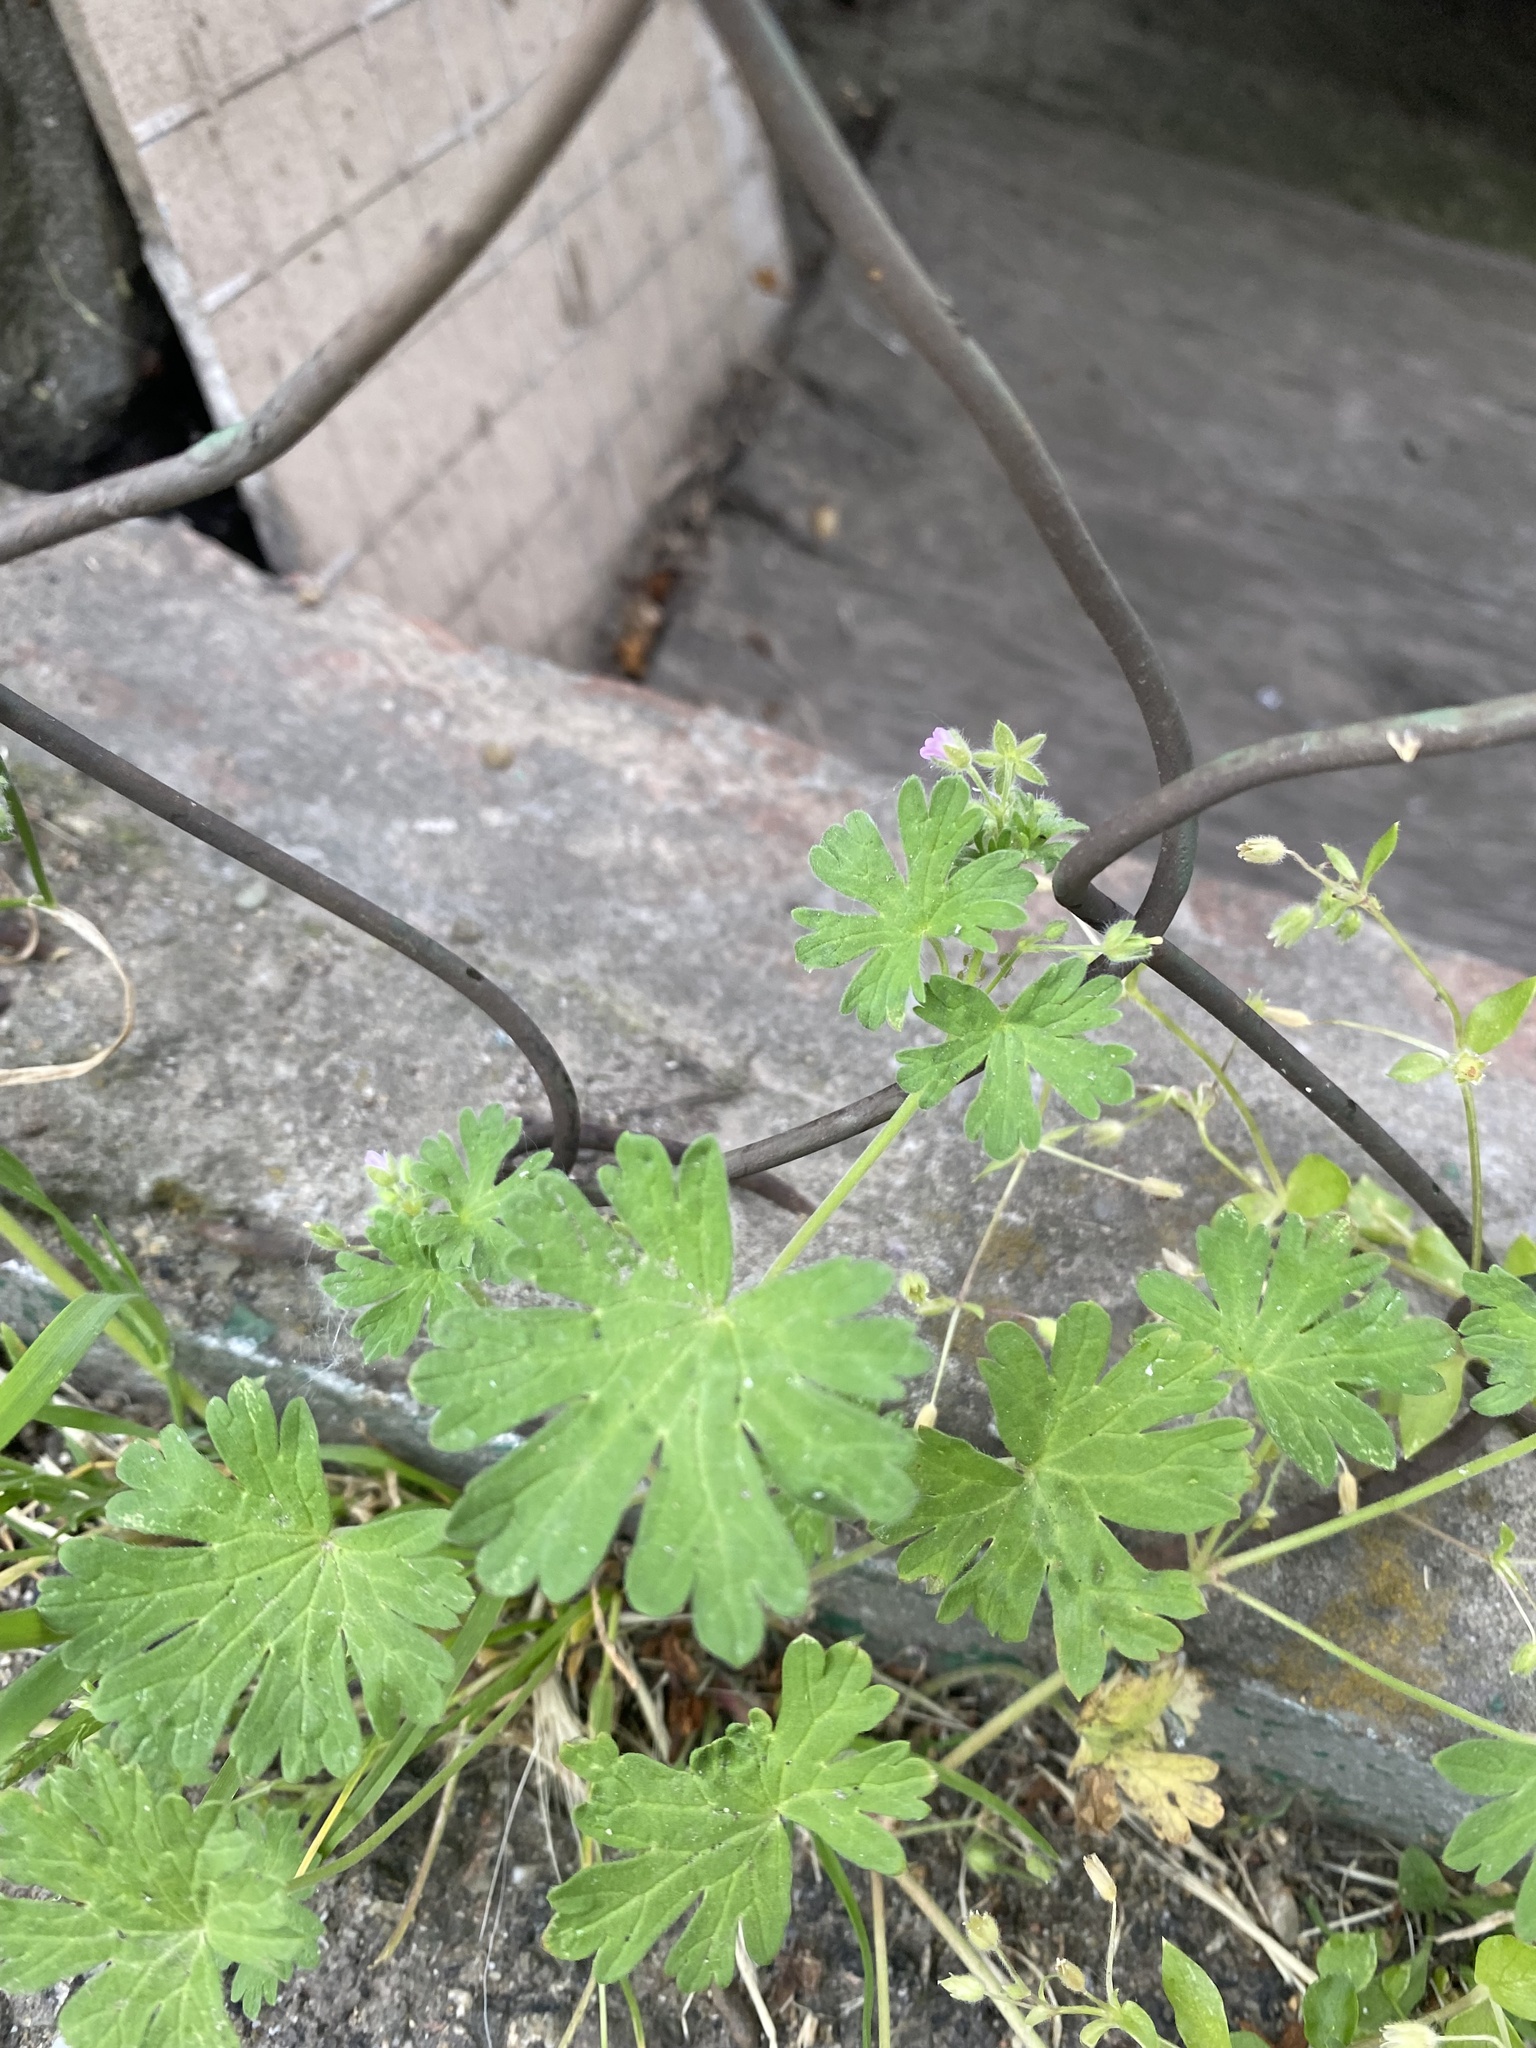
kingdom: Plantae
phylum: Tracheophyta
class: Magnoliopsida
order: Geraniales
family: Geraniaceae
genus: Geranium
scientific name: Geranium pusillum
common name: Small geranium
